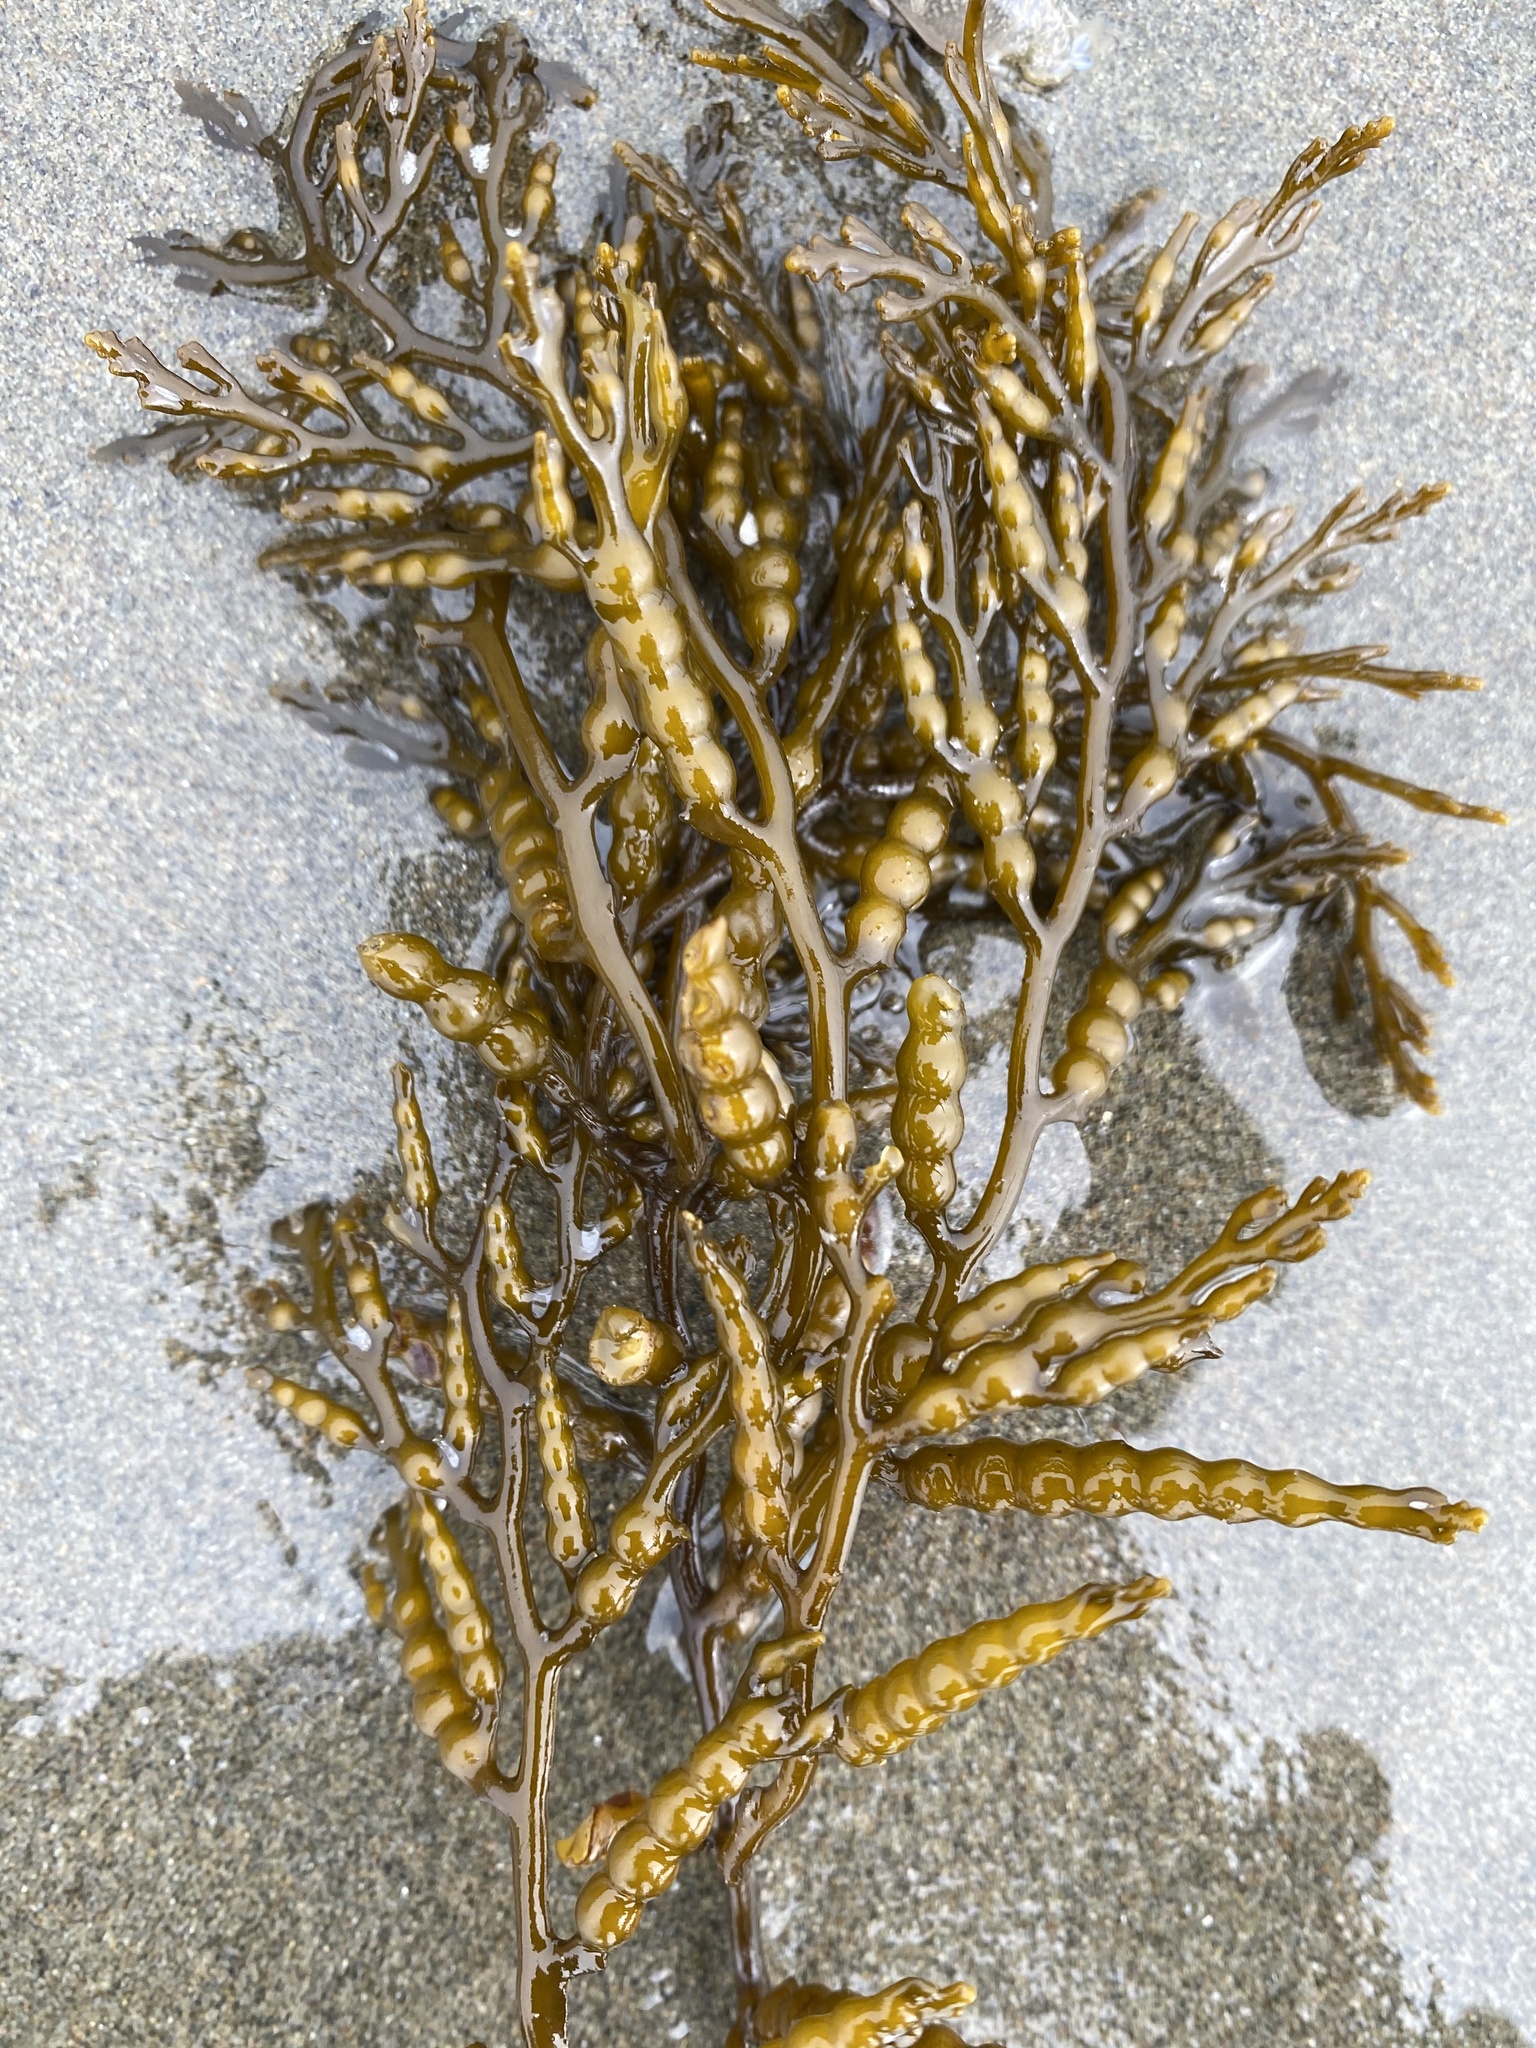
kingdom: Chromista
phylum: Ochrophyta
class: Phaeophyceae
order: Fucales
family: Sargassaceae
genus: Stephanocystis
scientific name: Stephanocystis
